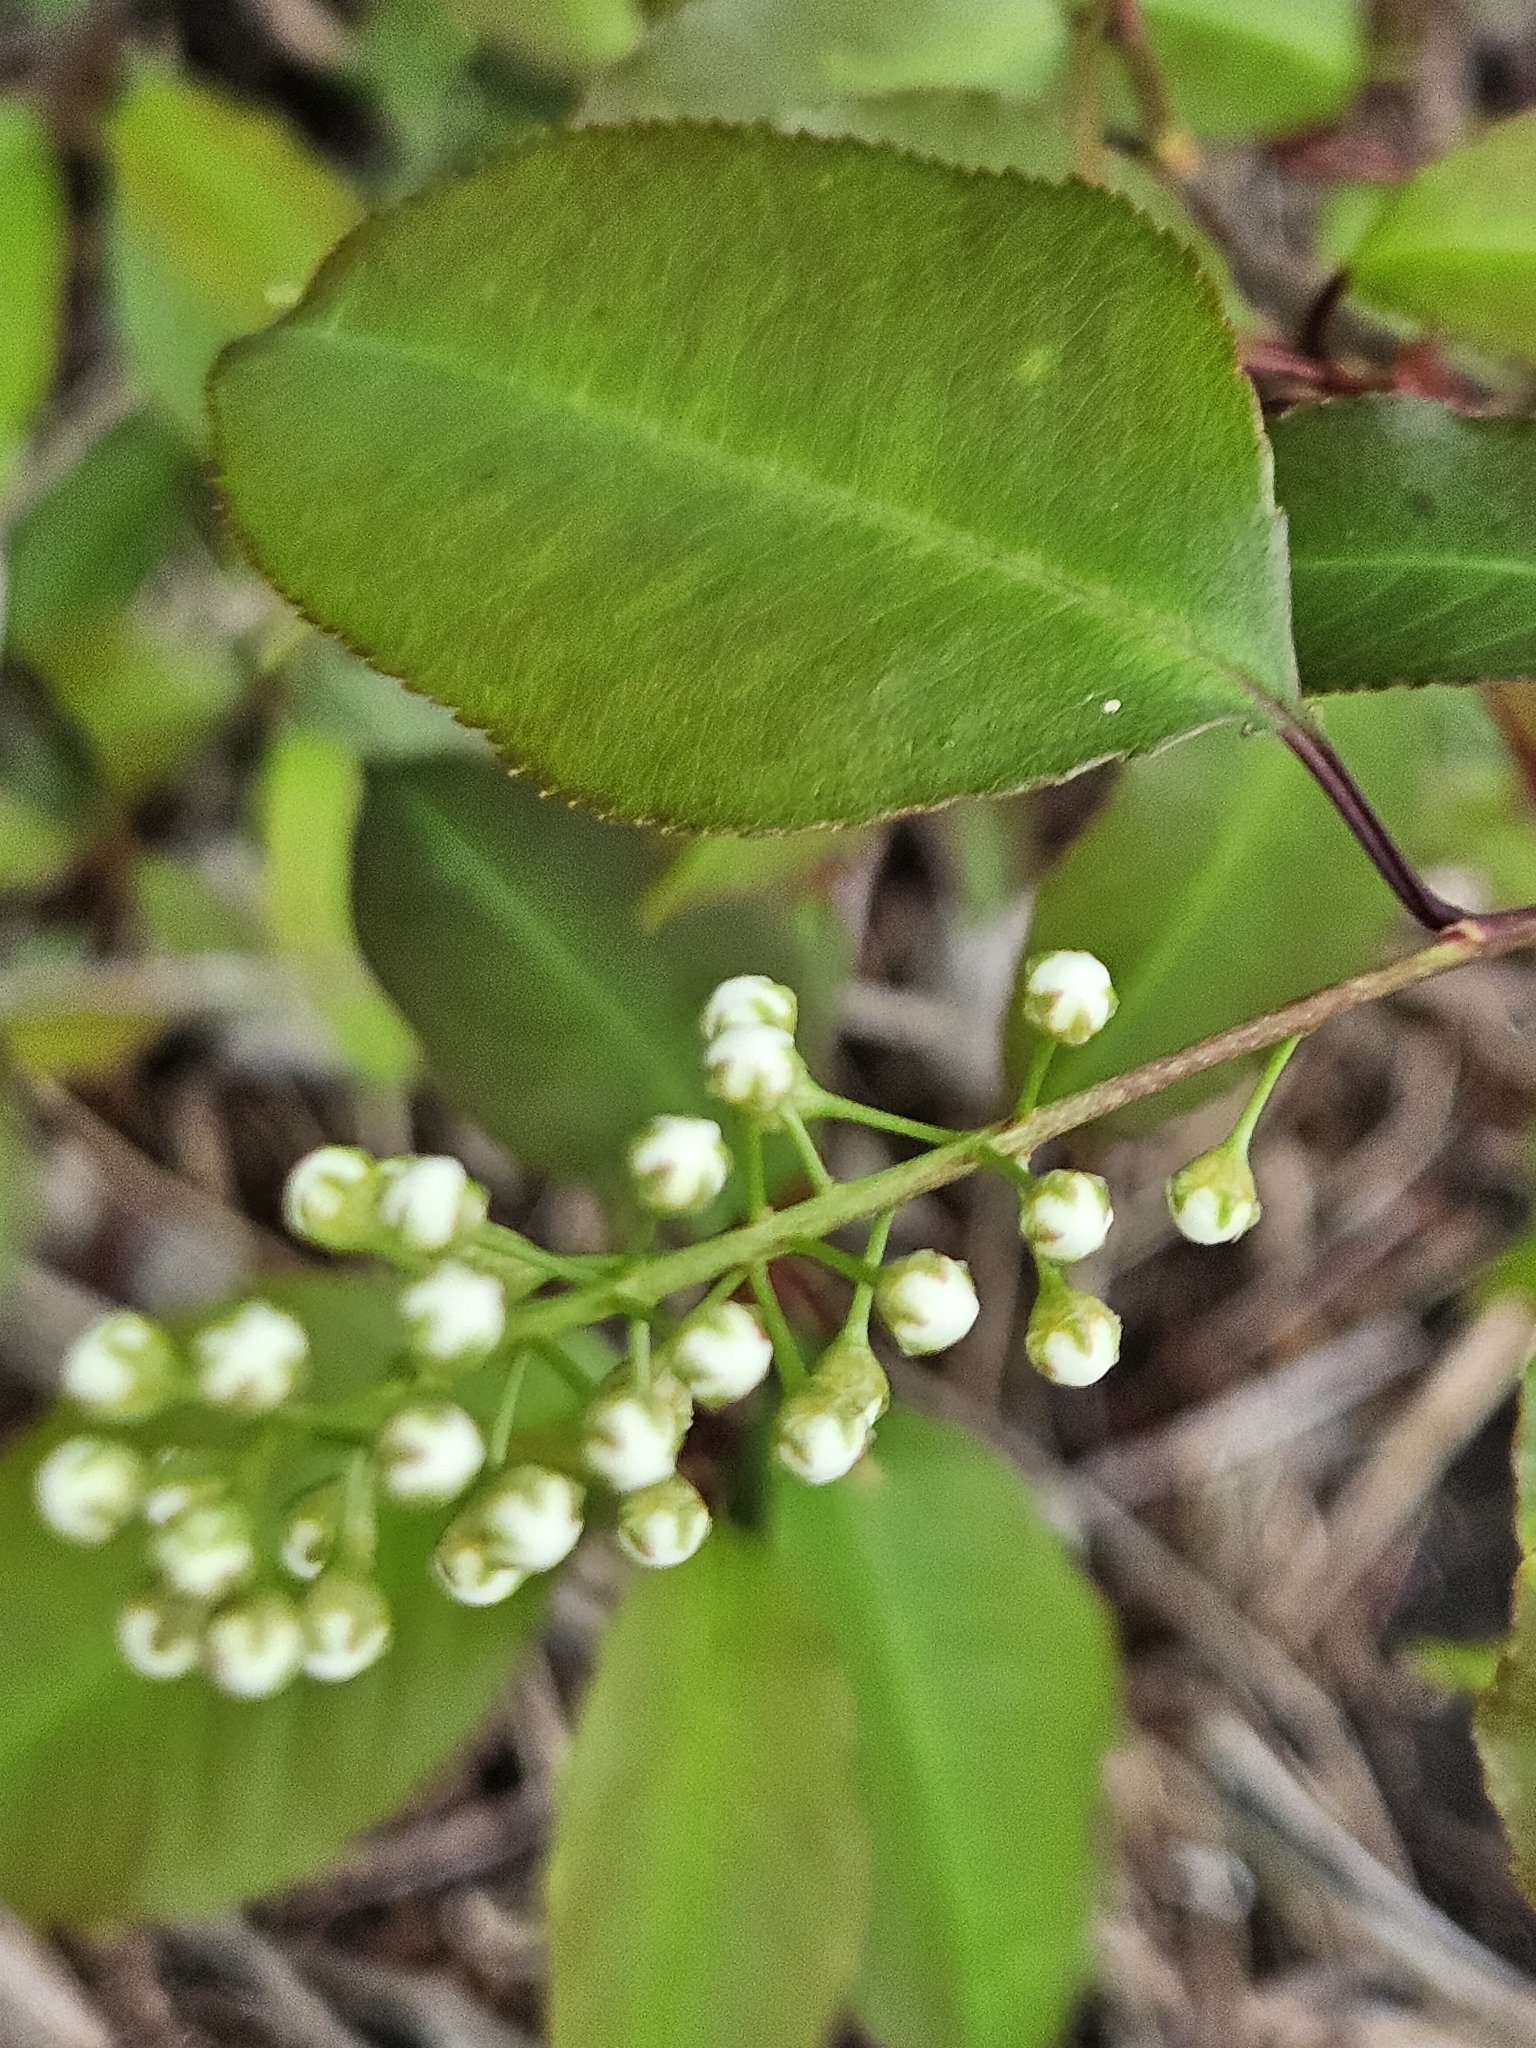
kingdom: Plantae
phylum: Tracheophyta
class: Magnoliopsida
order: Rosales
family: Rosaceae
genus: Prunus
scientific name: Prunus serotina
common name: Black cherry
